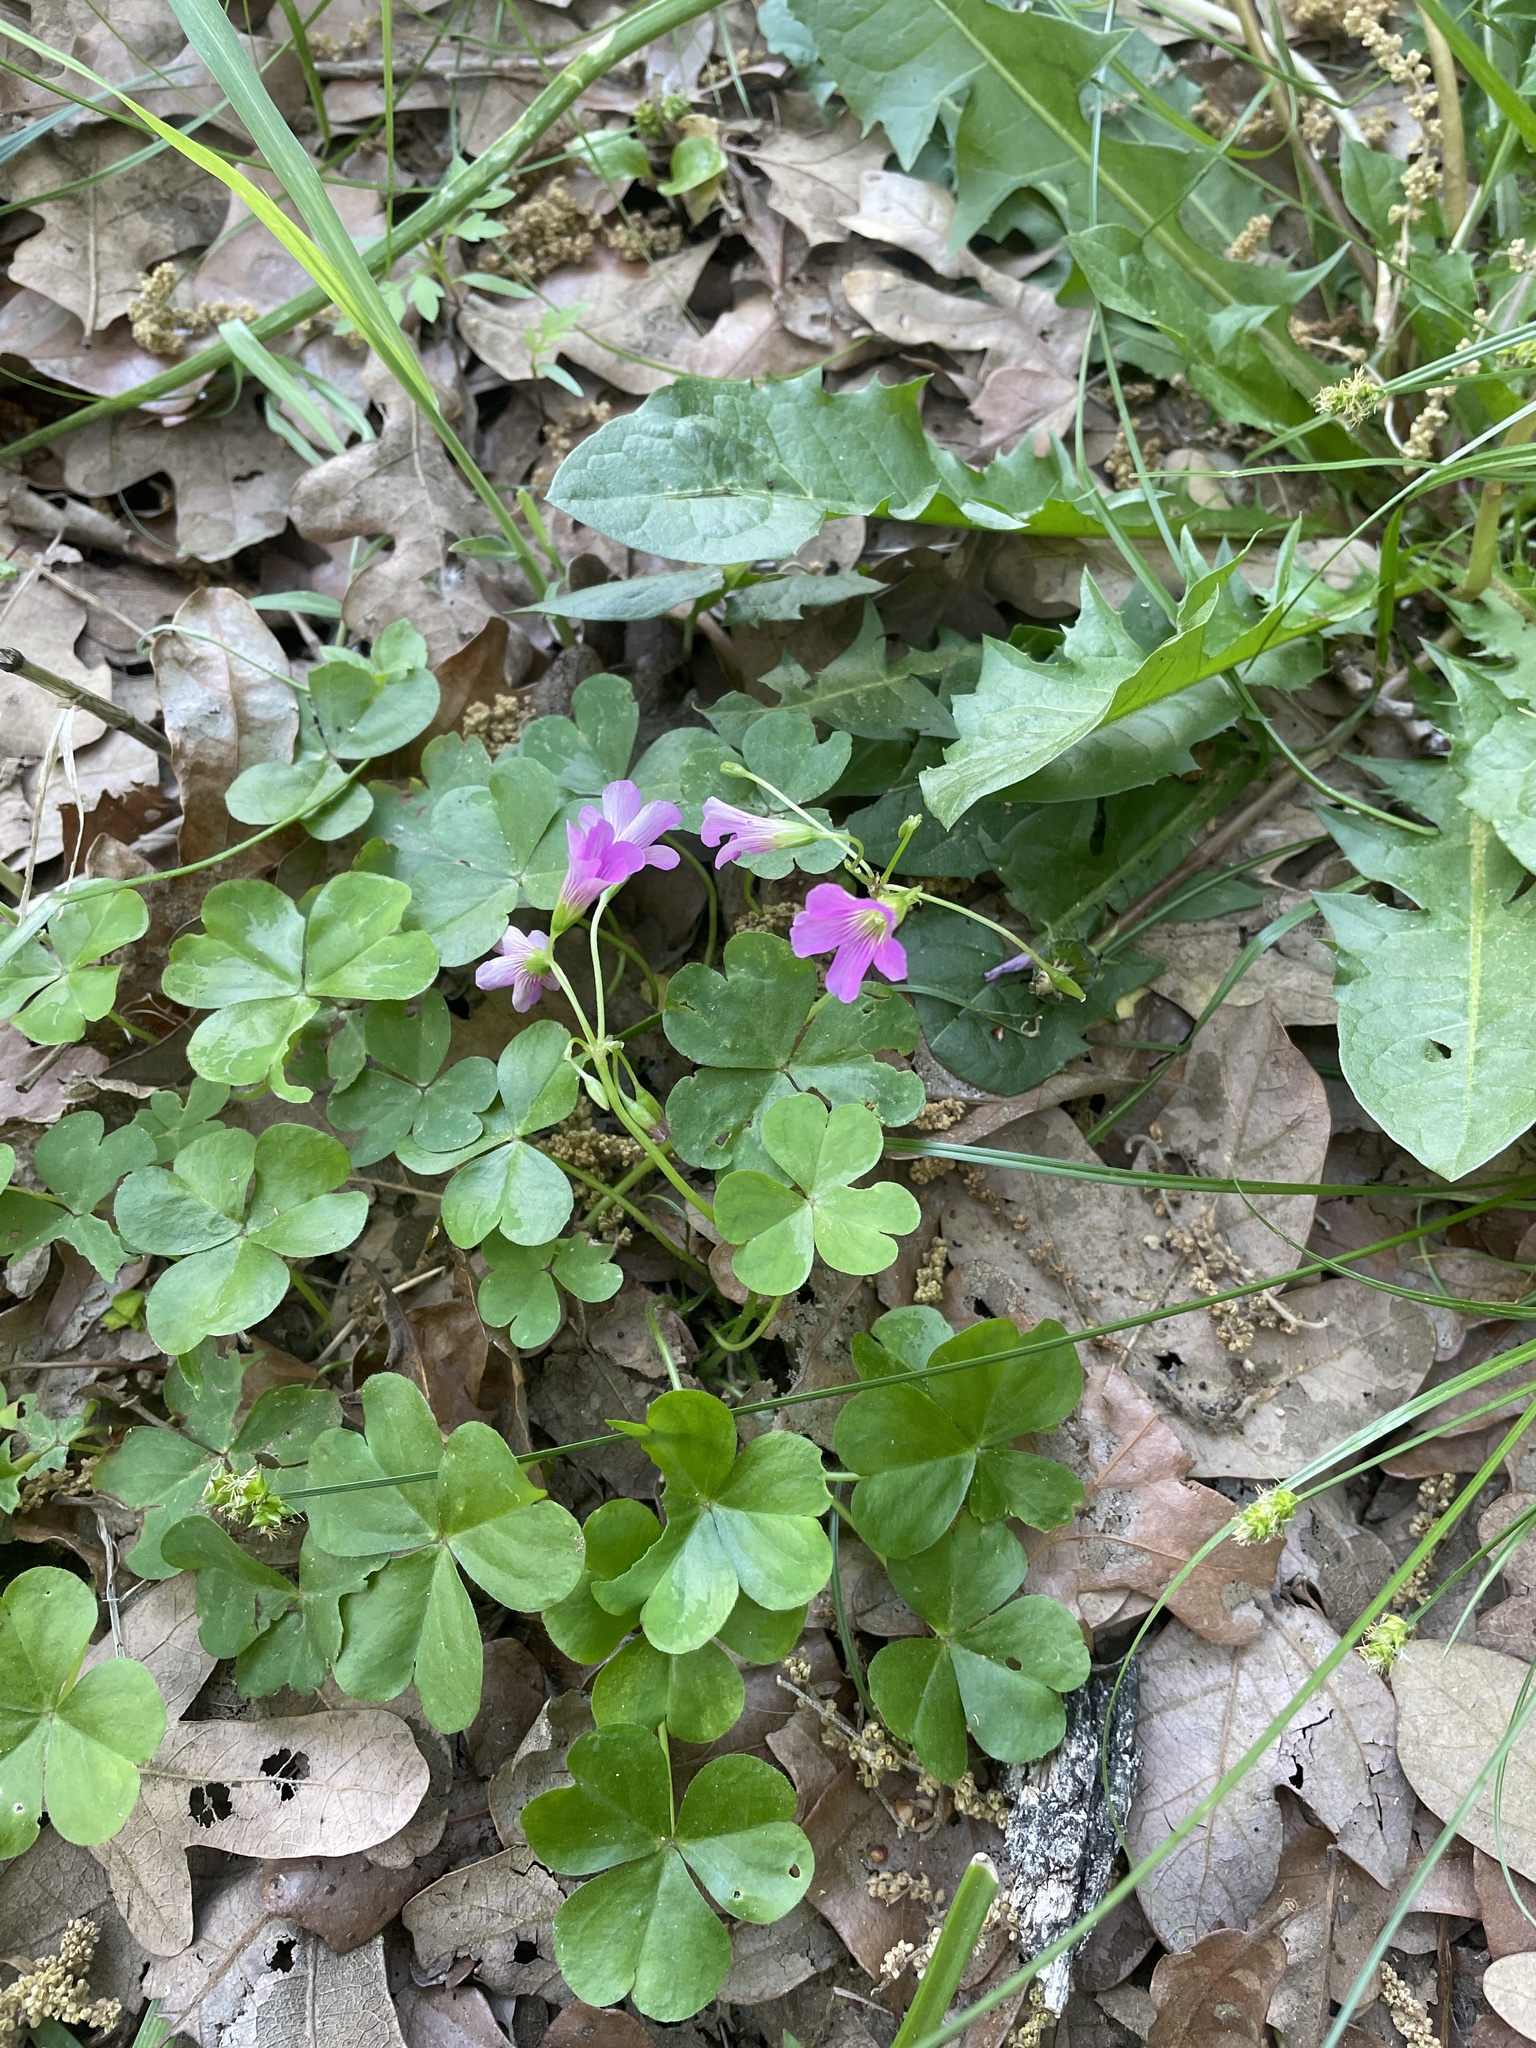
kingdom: Plantae
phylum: Tracheophyta
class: Magnoliopsida
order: Oxalidales
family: Oxalidaceae
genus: Oxalis
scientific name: Oxalis debilis
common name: Large-flowered pink-sorrel
